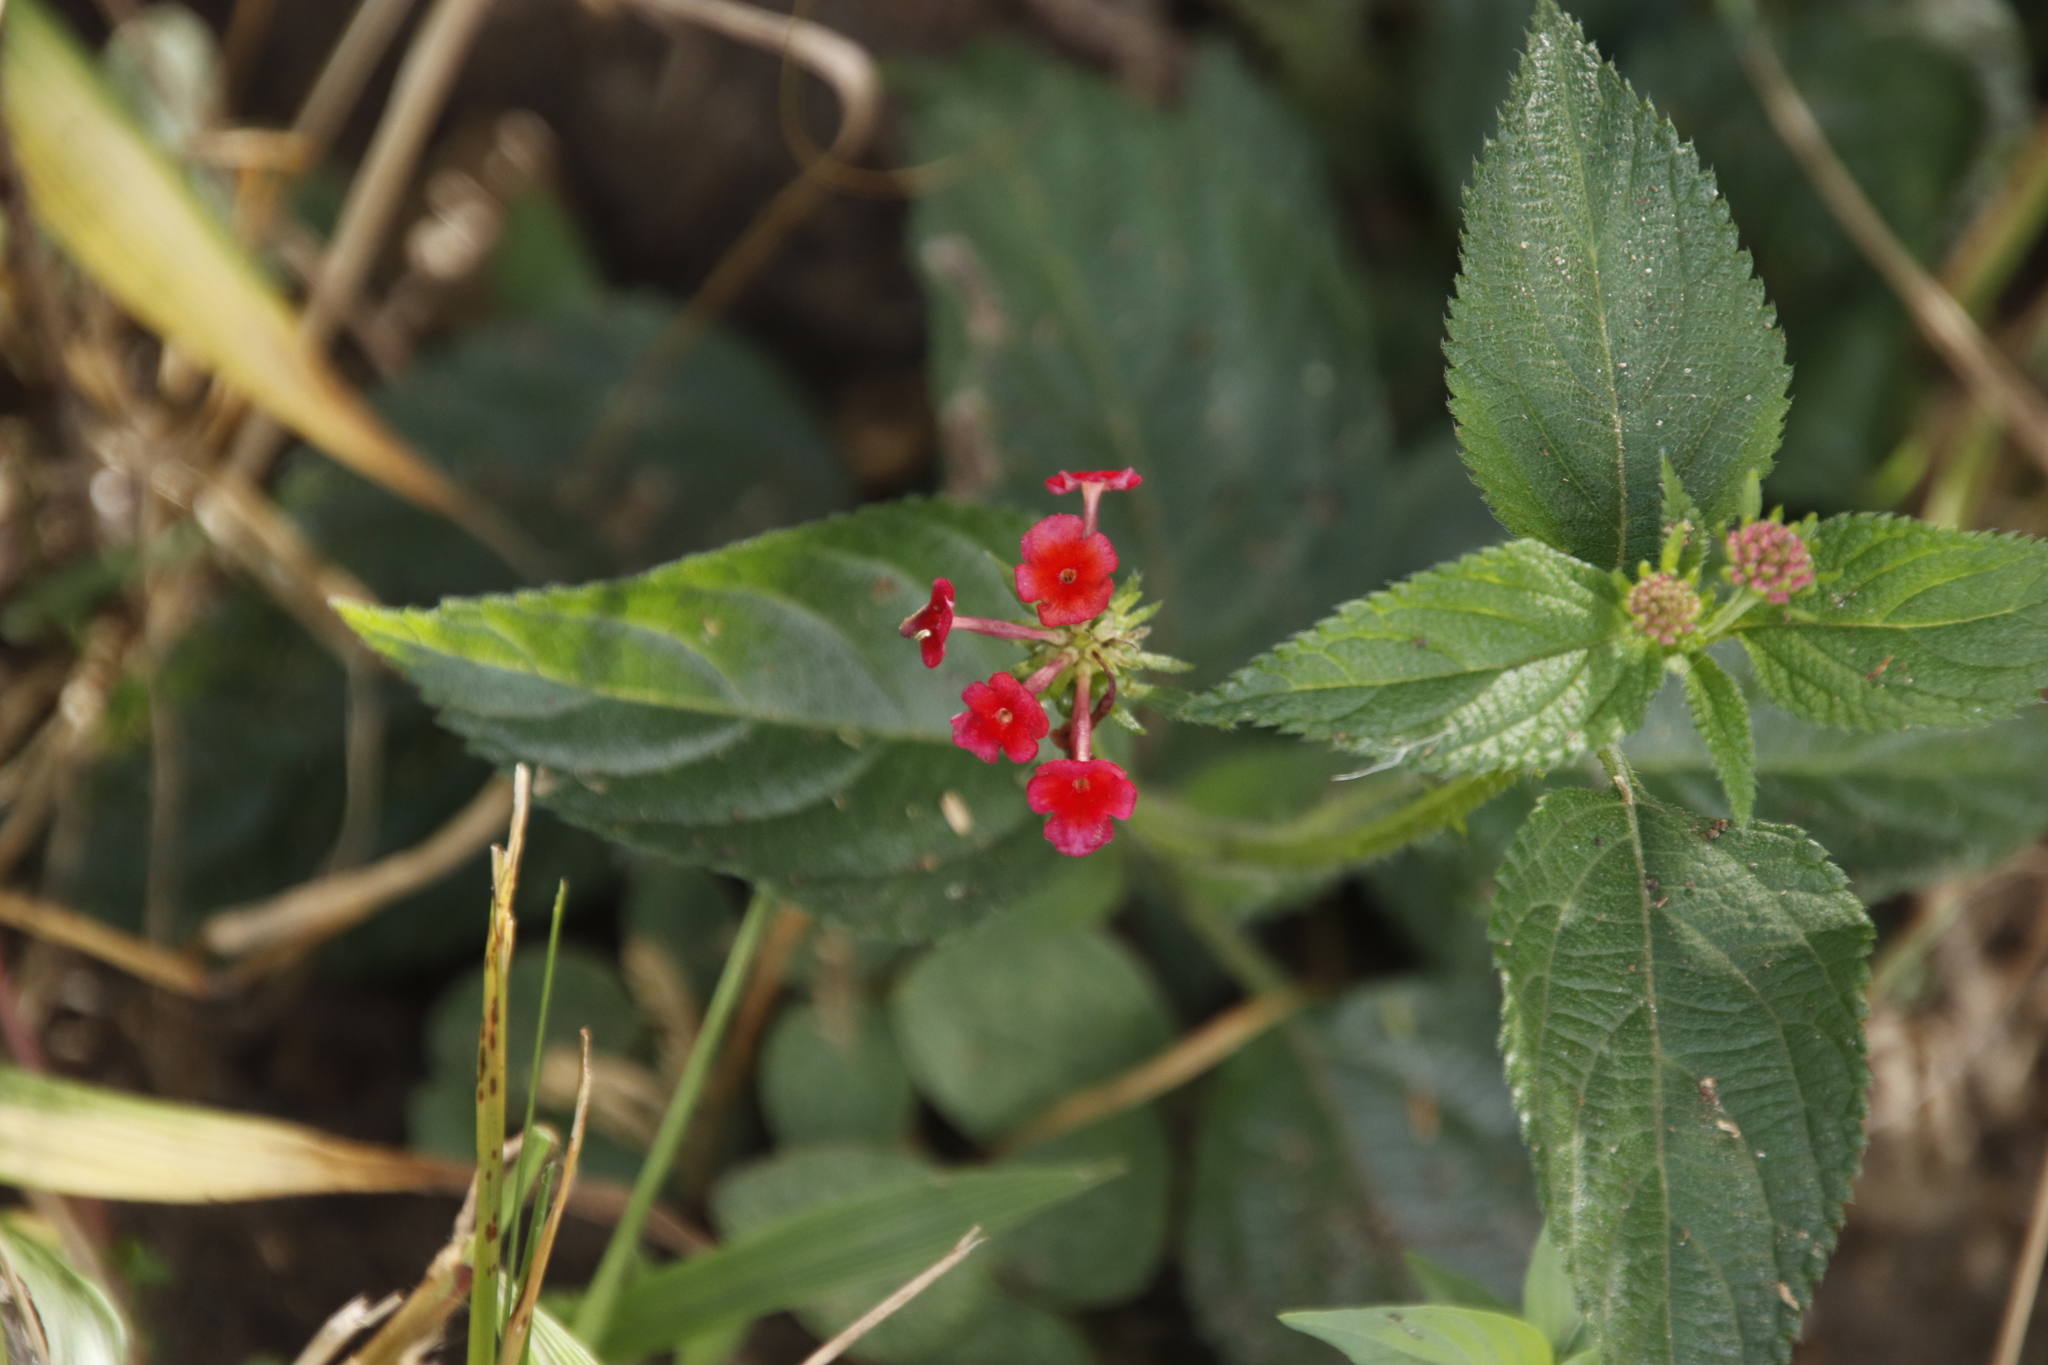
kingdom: Plantae
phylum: Tracheophyta
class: Magnoliopsida
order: Lamiales
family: Verbenaceae
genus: Lantana
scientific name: Lantana camara
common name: Lantana
